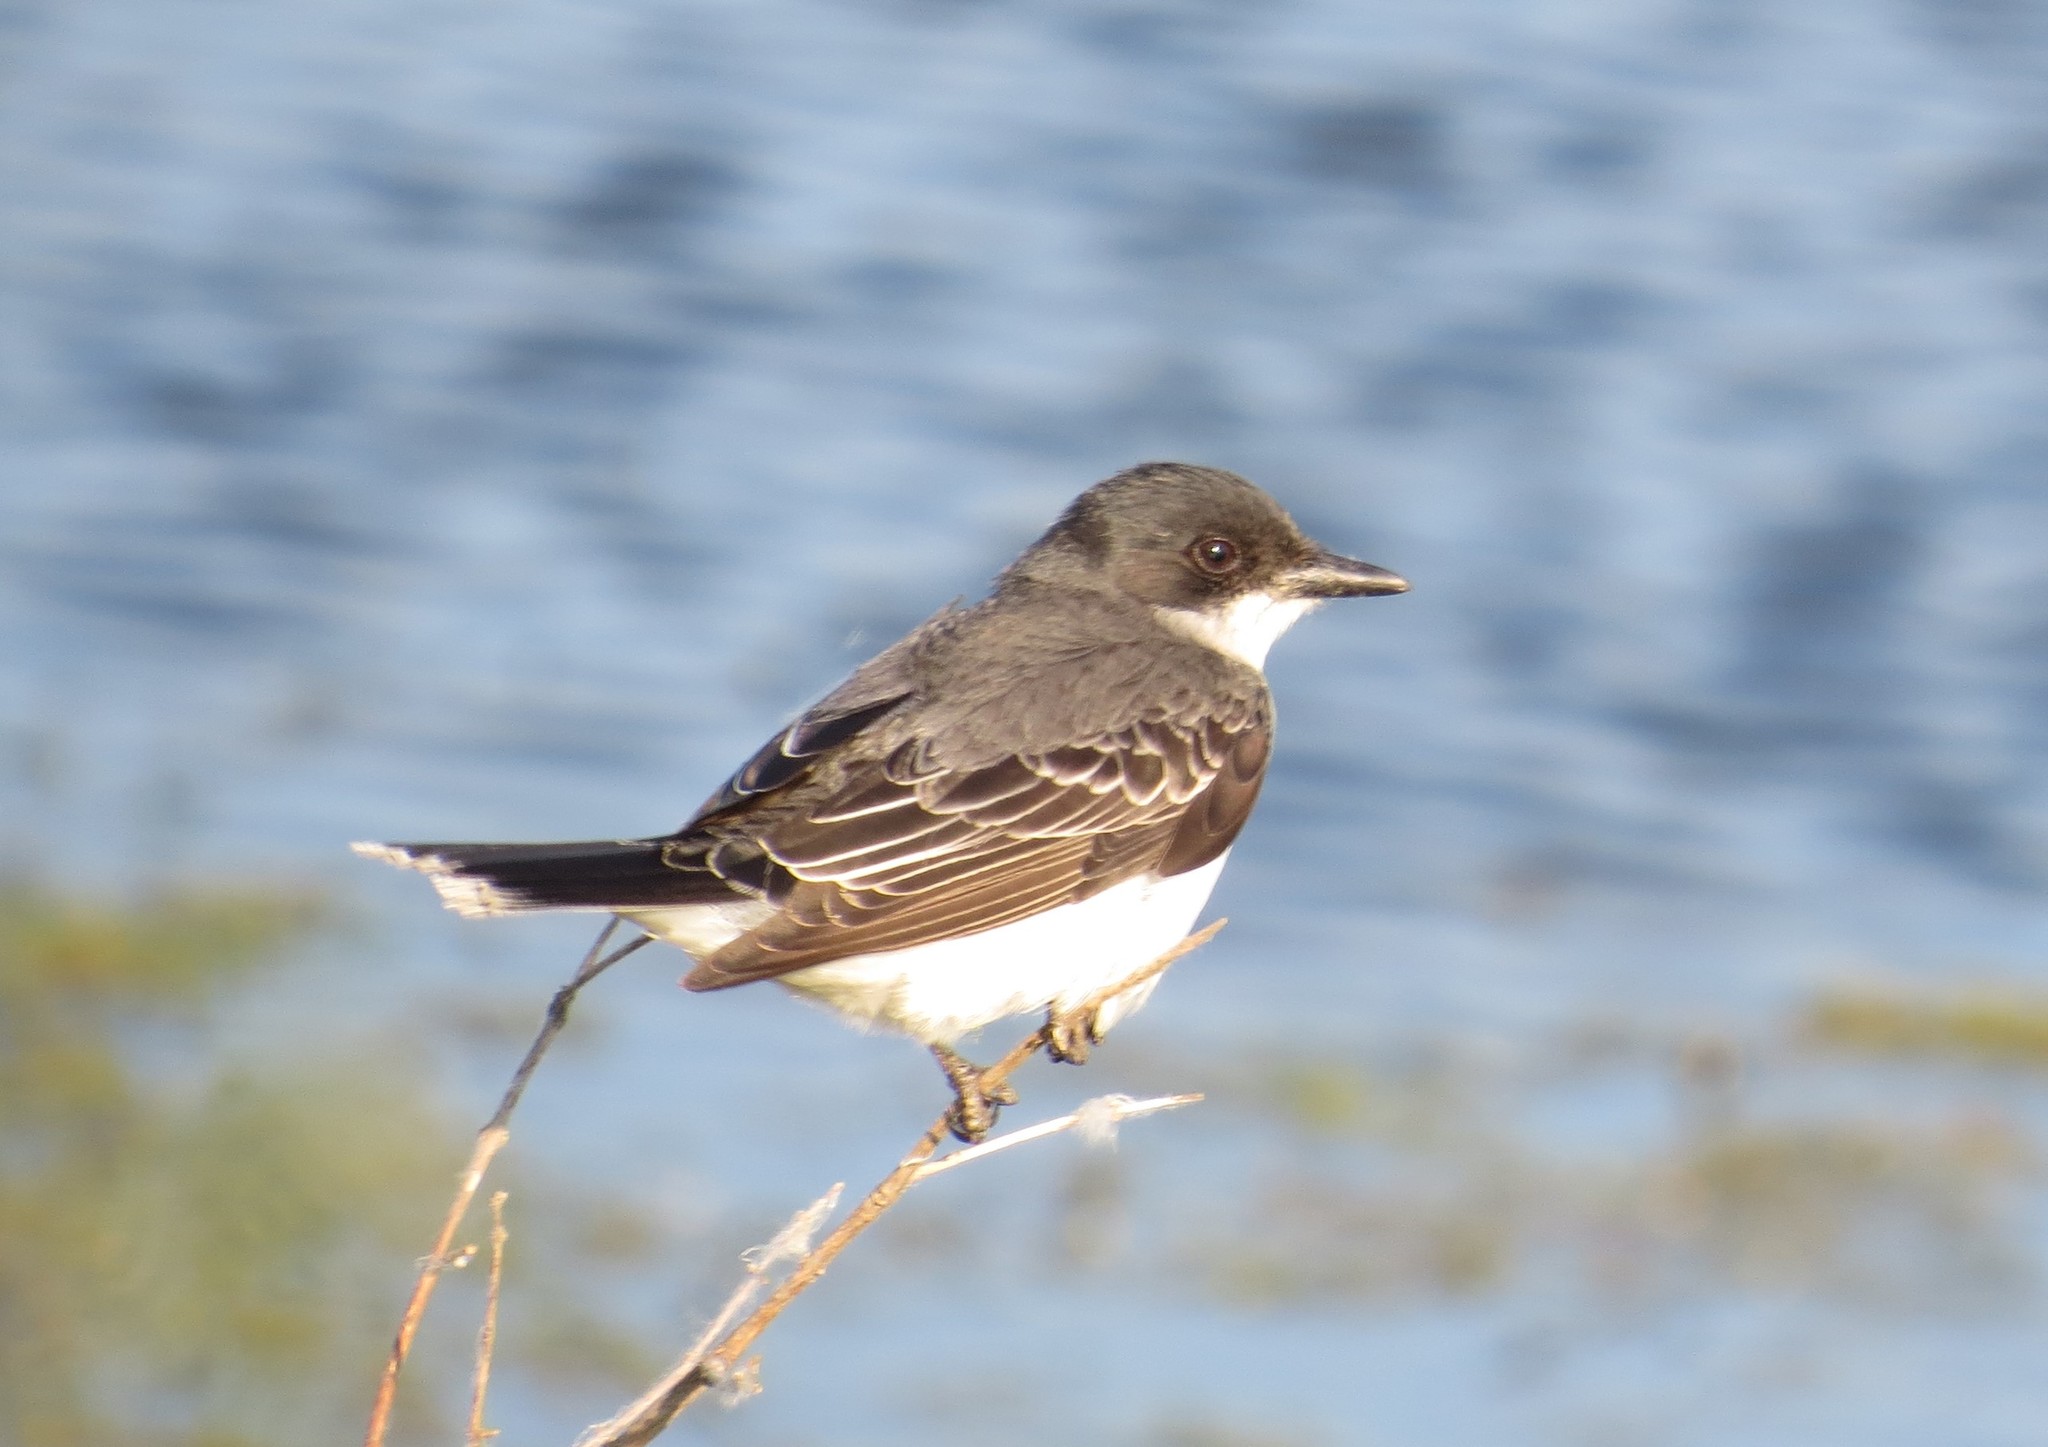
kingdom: Animalia
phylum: Chordata
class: Aves
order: Passeriformes
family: Tyrannidae
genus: Tyrannus
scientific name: Tyrannus tyrannus
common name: Eastern kingbird
